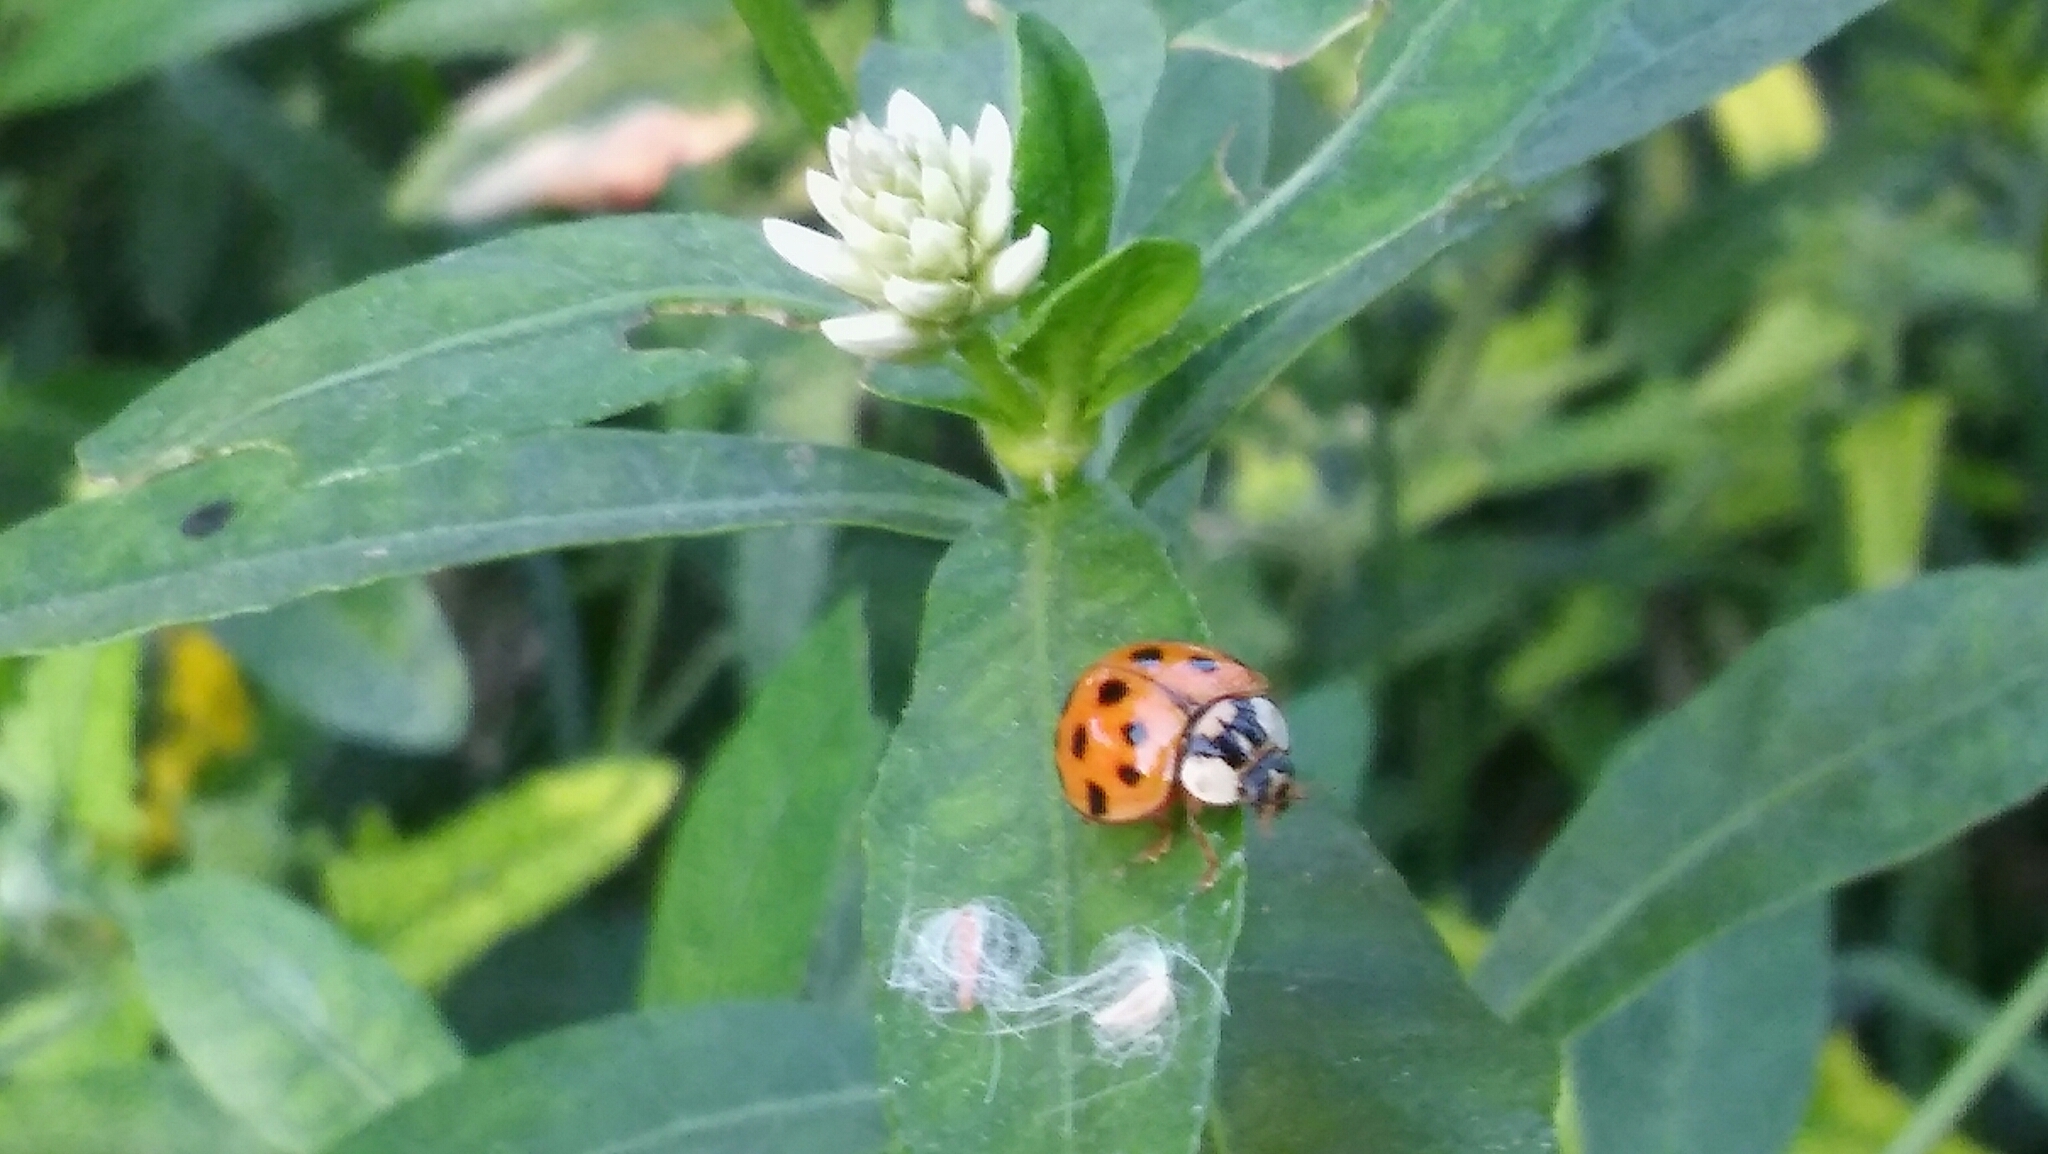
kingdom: Animalia
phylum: Arthropoda
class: Insecta
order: Coleoptera
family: Coccinellidae
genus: Harmonia
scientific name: Harmonia axyridis
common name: Harlequin ladybird
